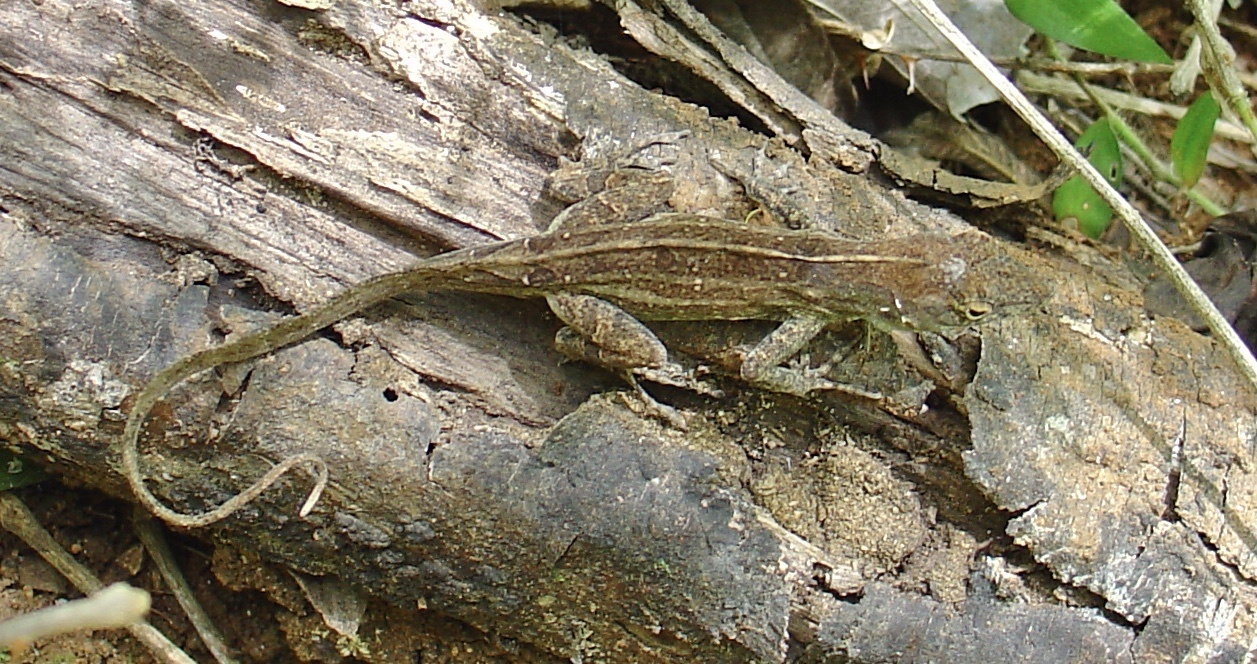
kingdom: Animalia
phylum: Chordata
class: Squamata
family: Dactyloidae
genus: Anolis
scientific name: Anolis sagrei
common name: Brown anole
